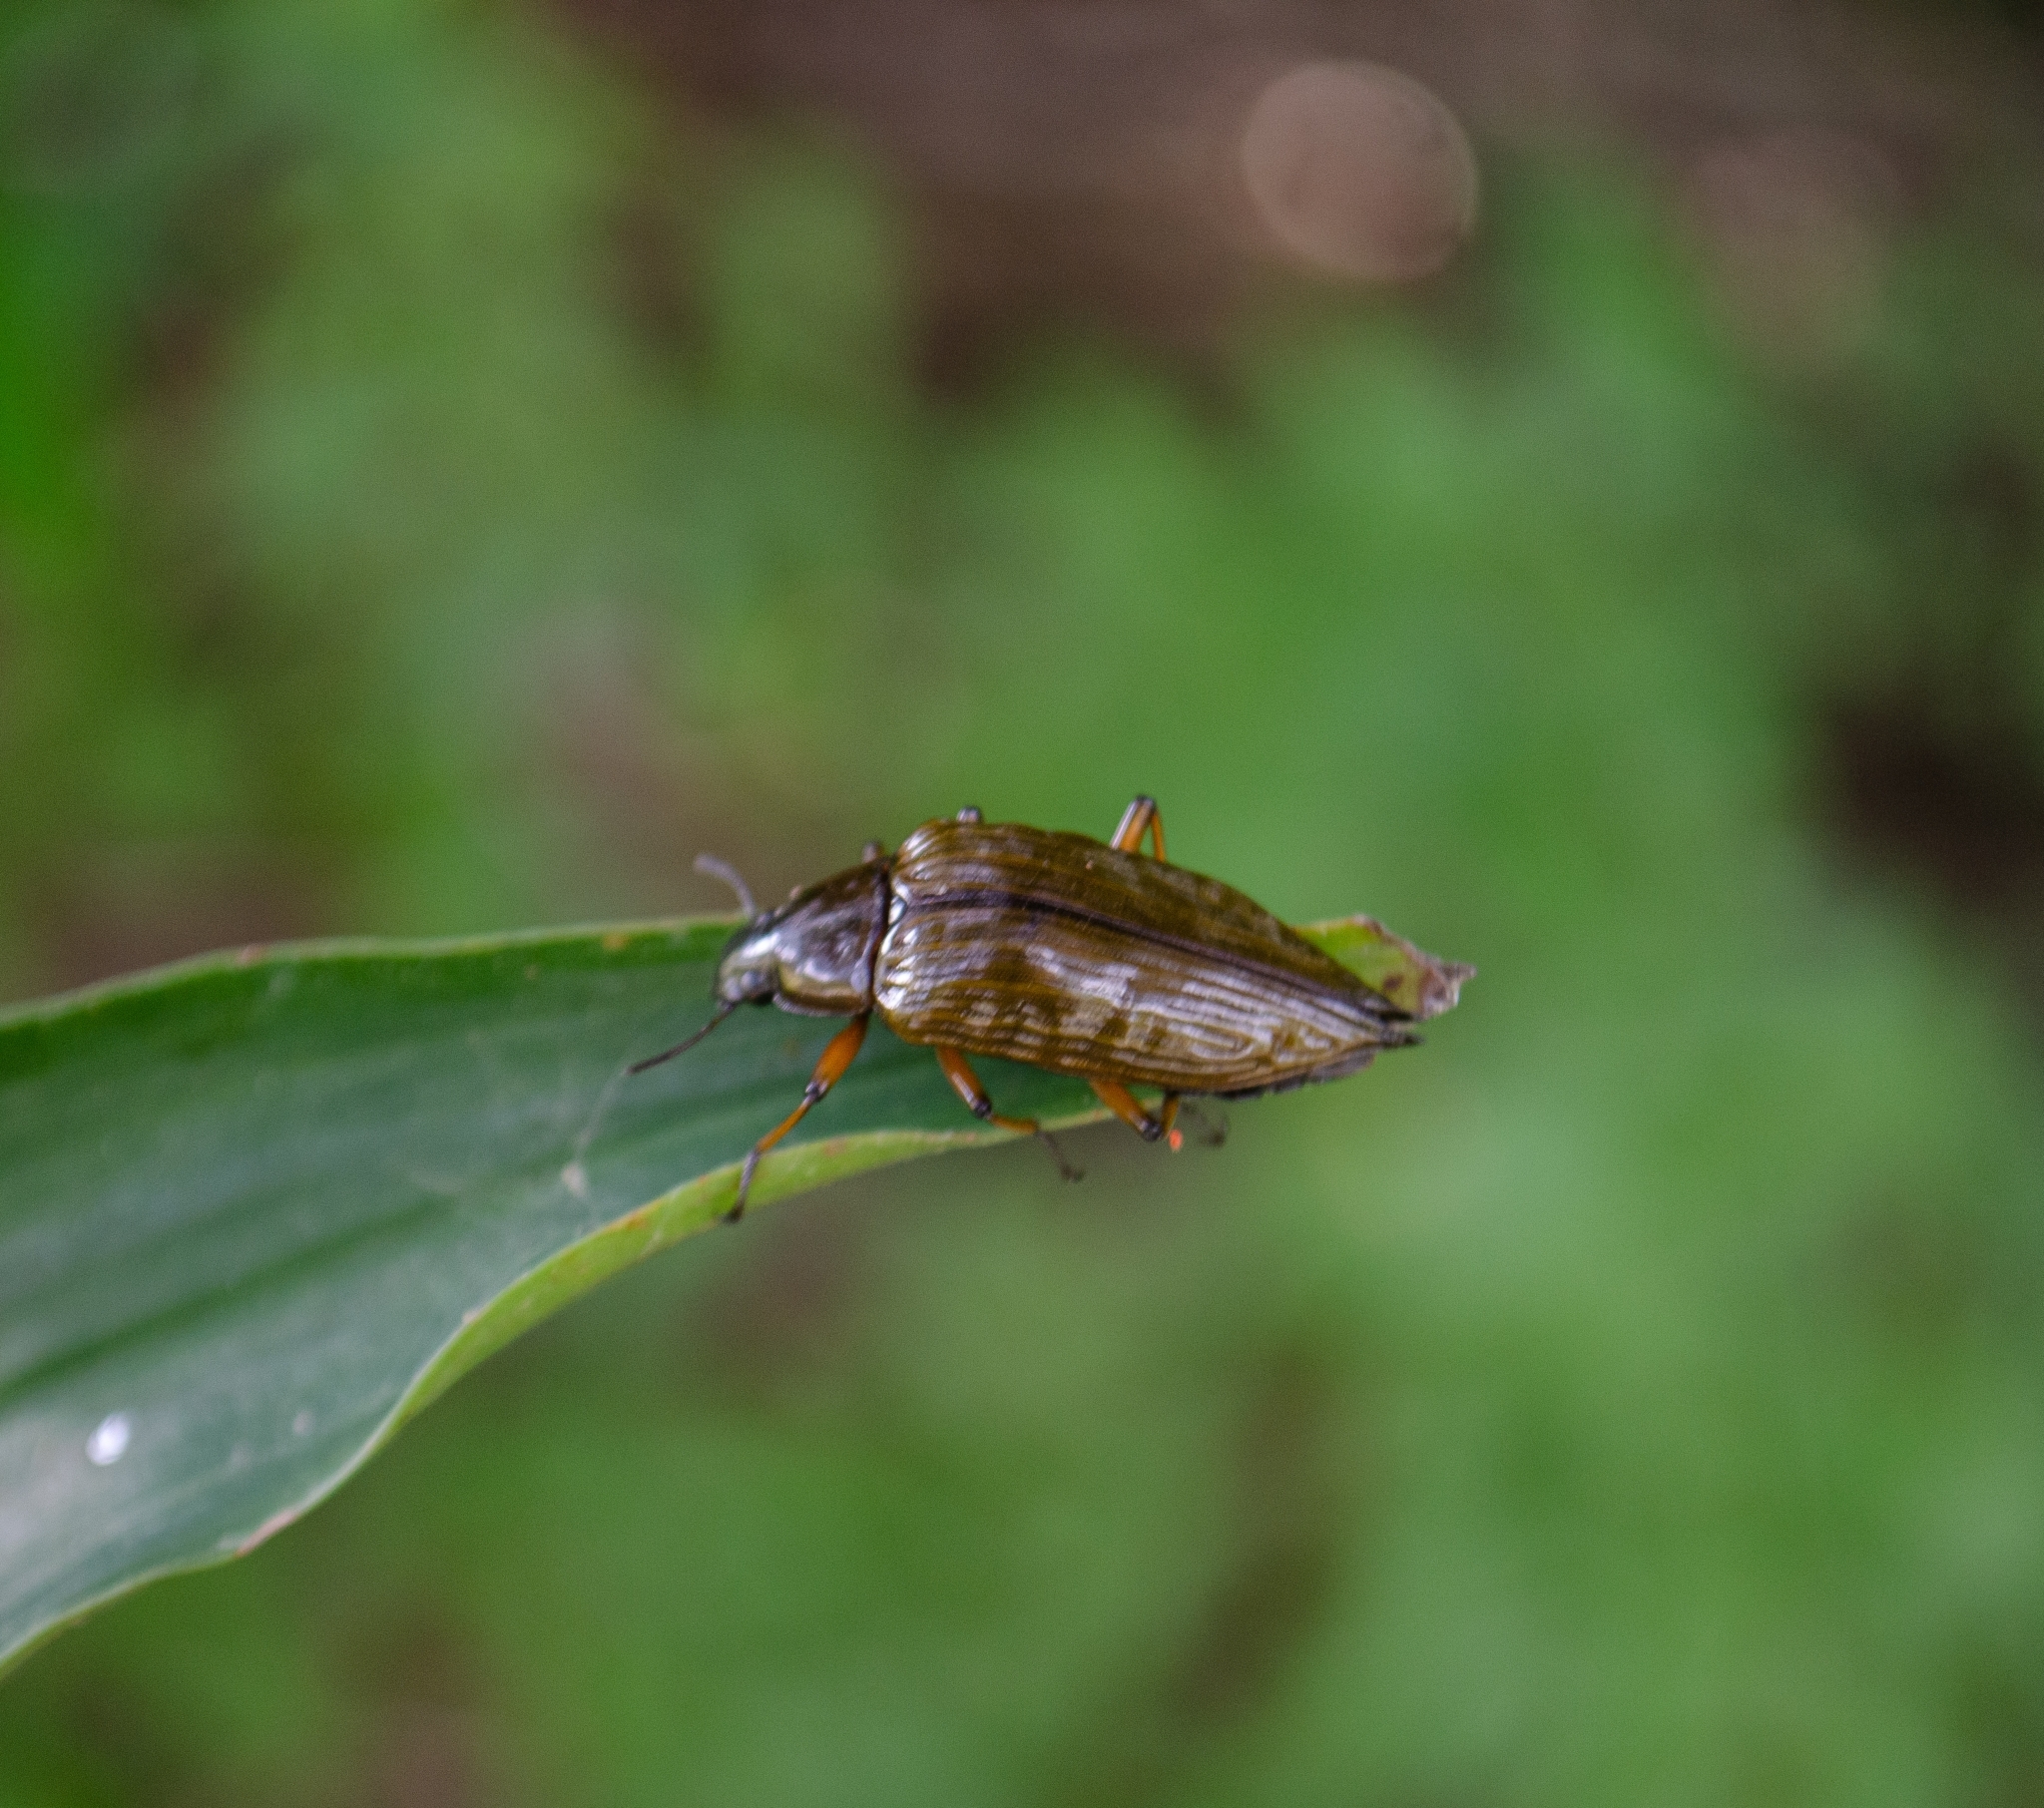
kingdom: Animalia
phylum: Arthropoda
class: Insecta
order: Coleoptera
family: Tenebrionidae
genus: Blapida
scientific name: Blapida pertyi
